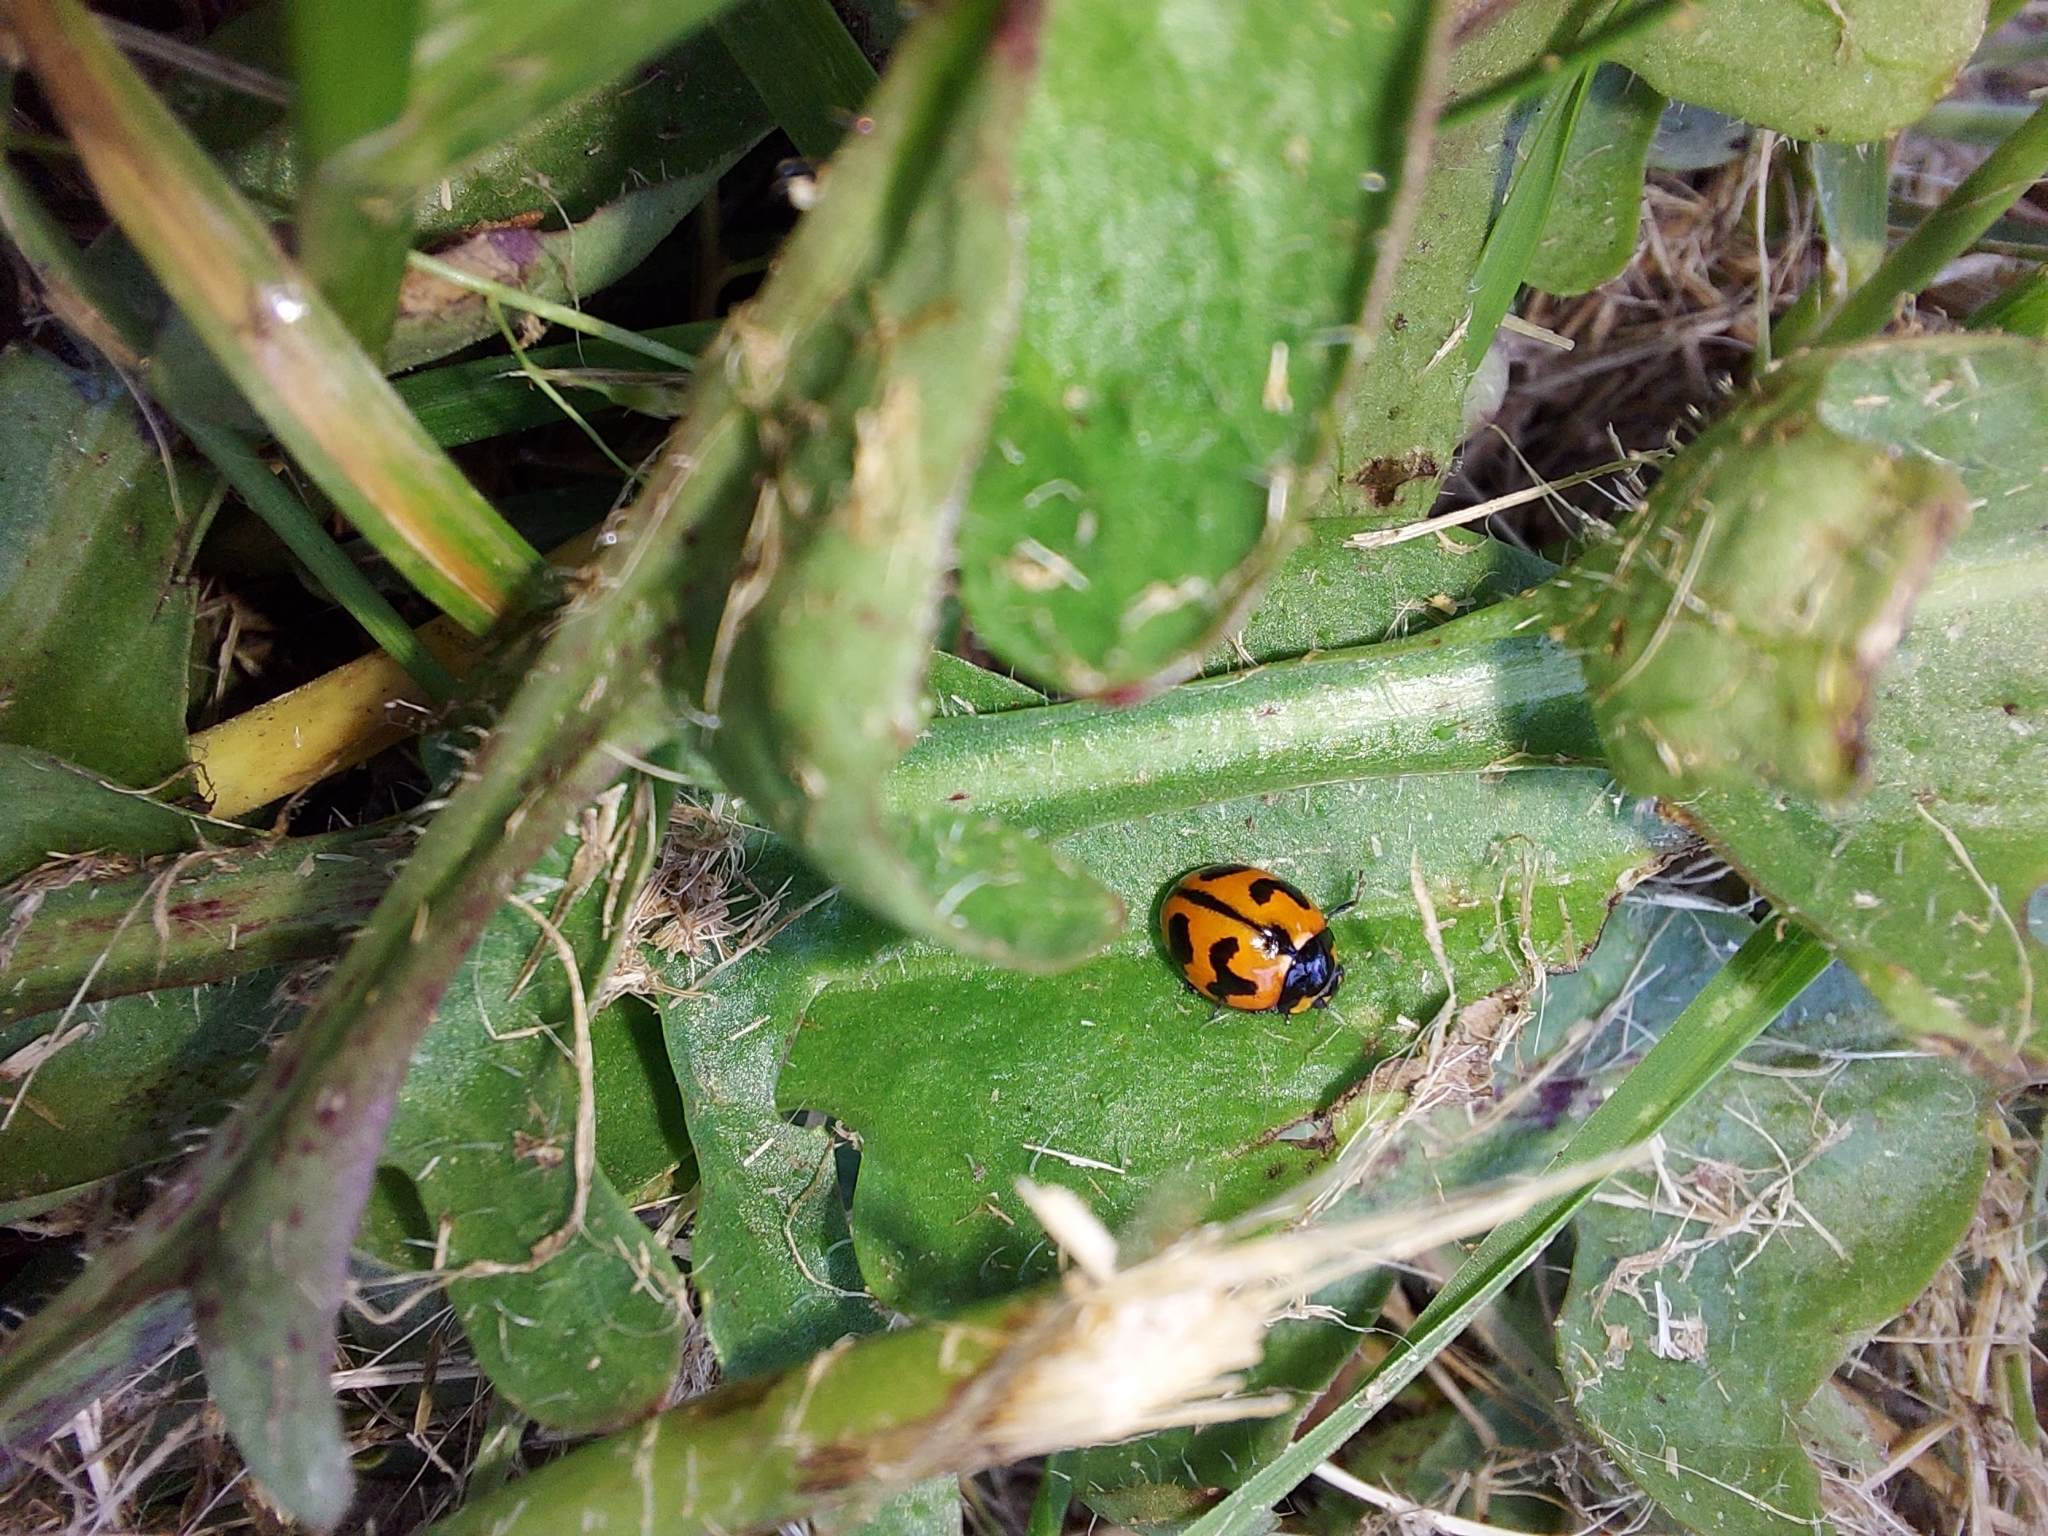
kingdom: Animalia
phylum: Arthropoda
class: Insecta
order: Coleoptera
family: Coccinellidae
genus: Coccinella
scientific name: Coccinella transversalis
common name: Transverse lady beetle
